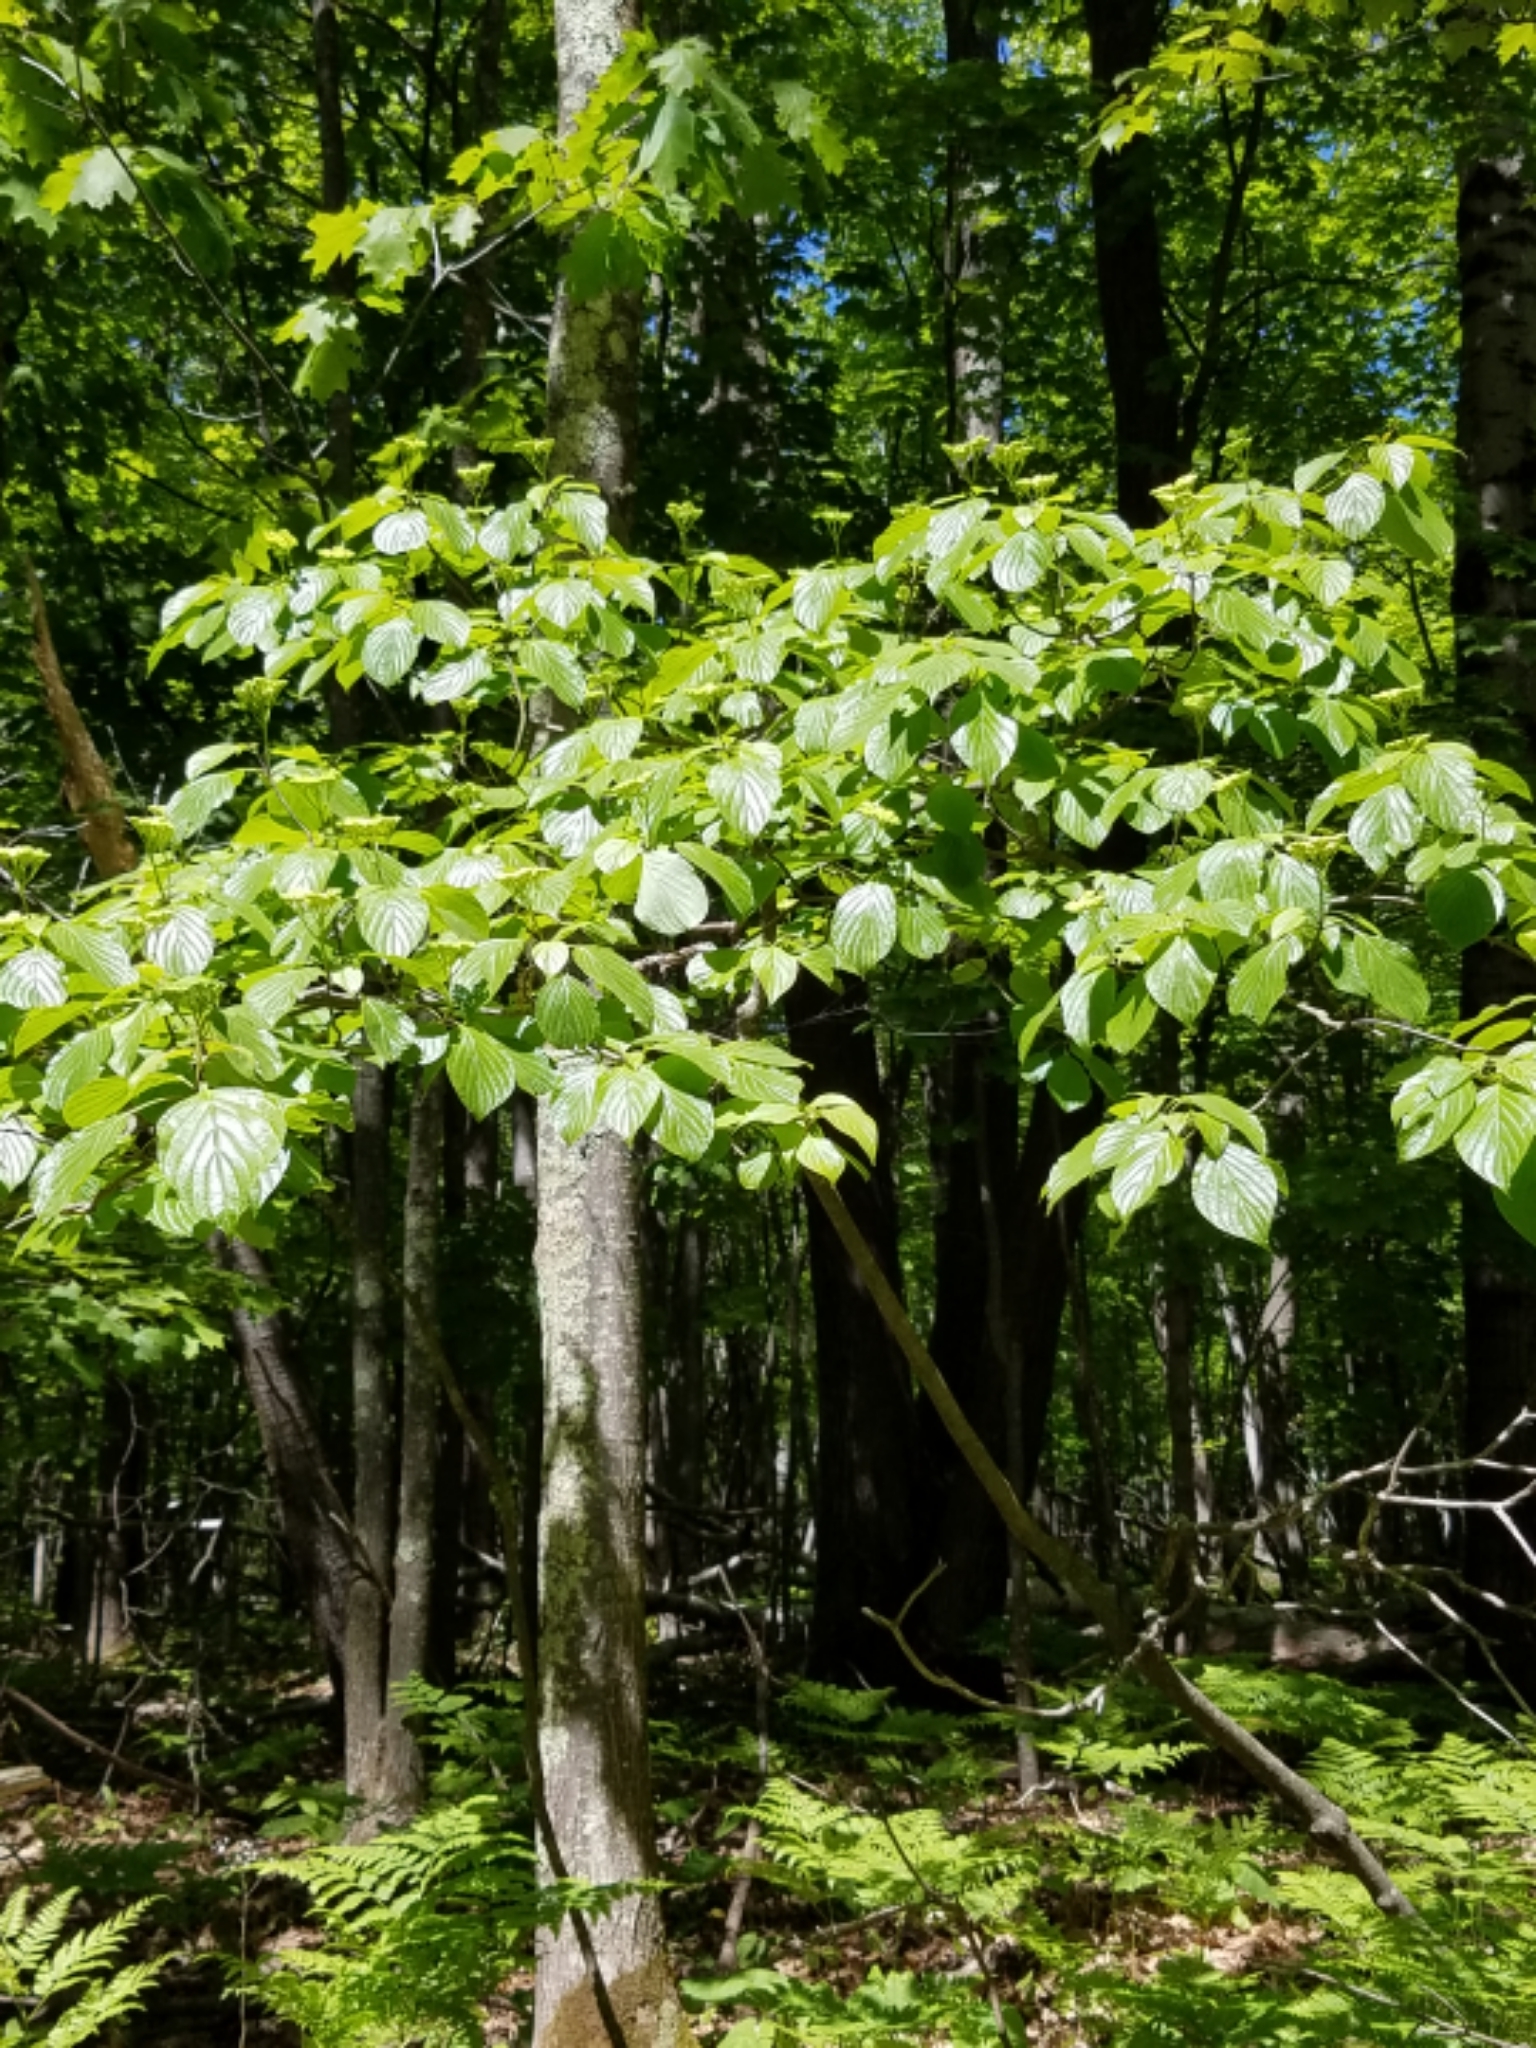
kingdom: Plantae
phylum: Tracheophyta
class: Magnoliopsida
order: Cornales
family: Cornaceae
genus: Cornus
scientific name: Cornus alternifolia
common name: Pagoda dogwood
